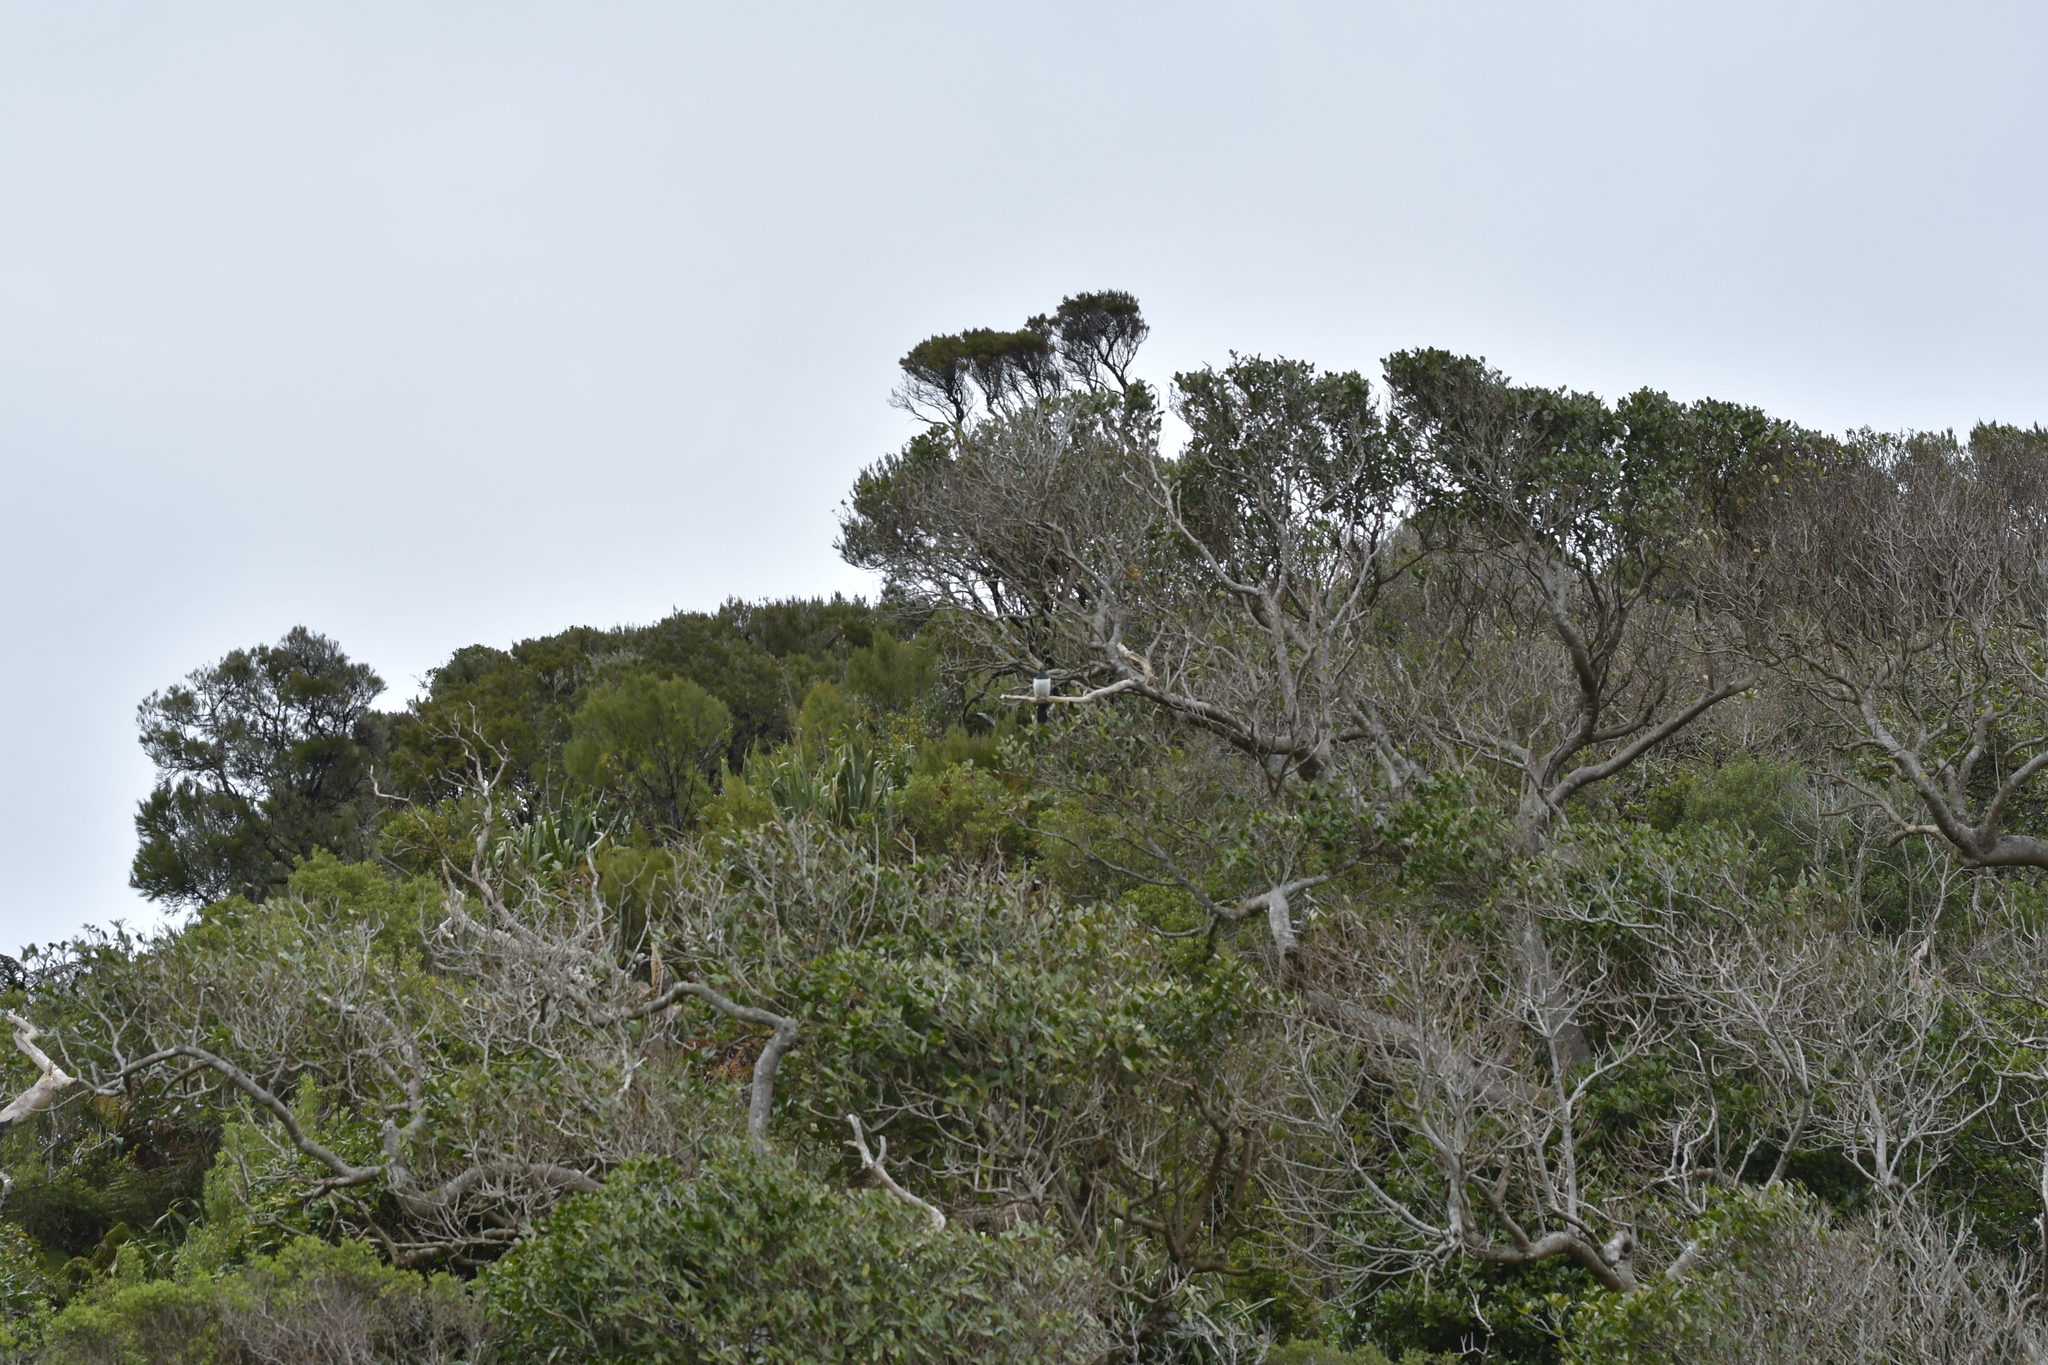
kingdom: Animalia
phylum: Chordata
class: Aves
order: Columbiformes
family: Columbidae
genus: Hemiphaga
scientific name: Hemiphaga chathamensis
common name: Chatham pigeon
